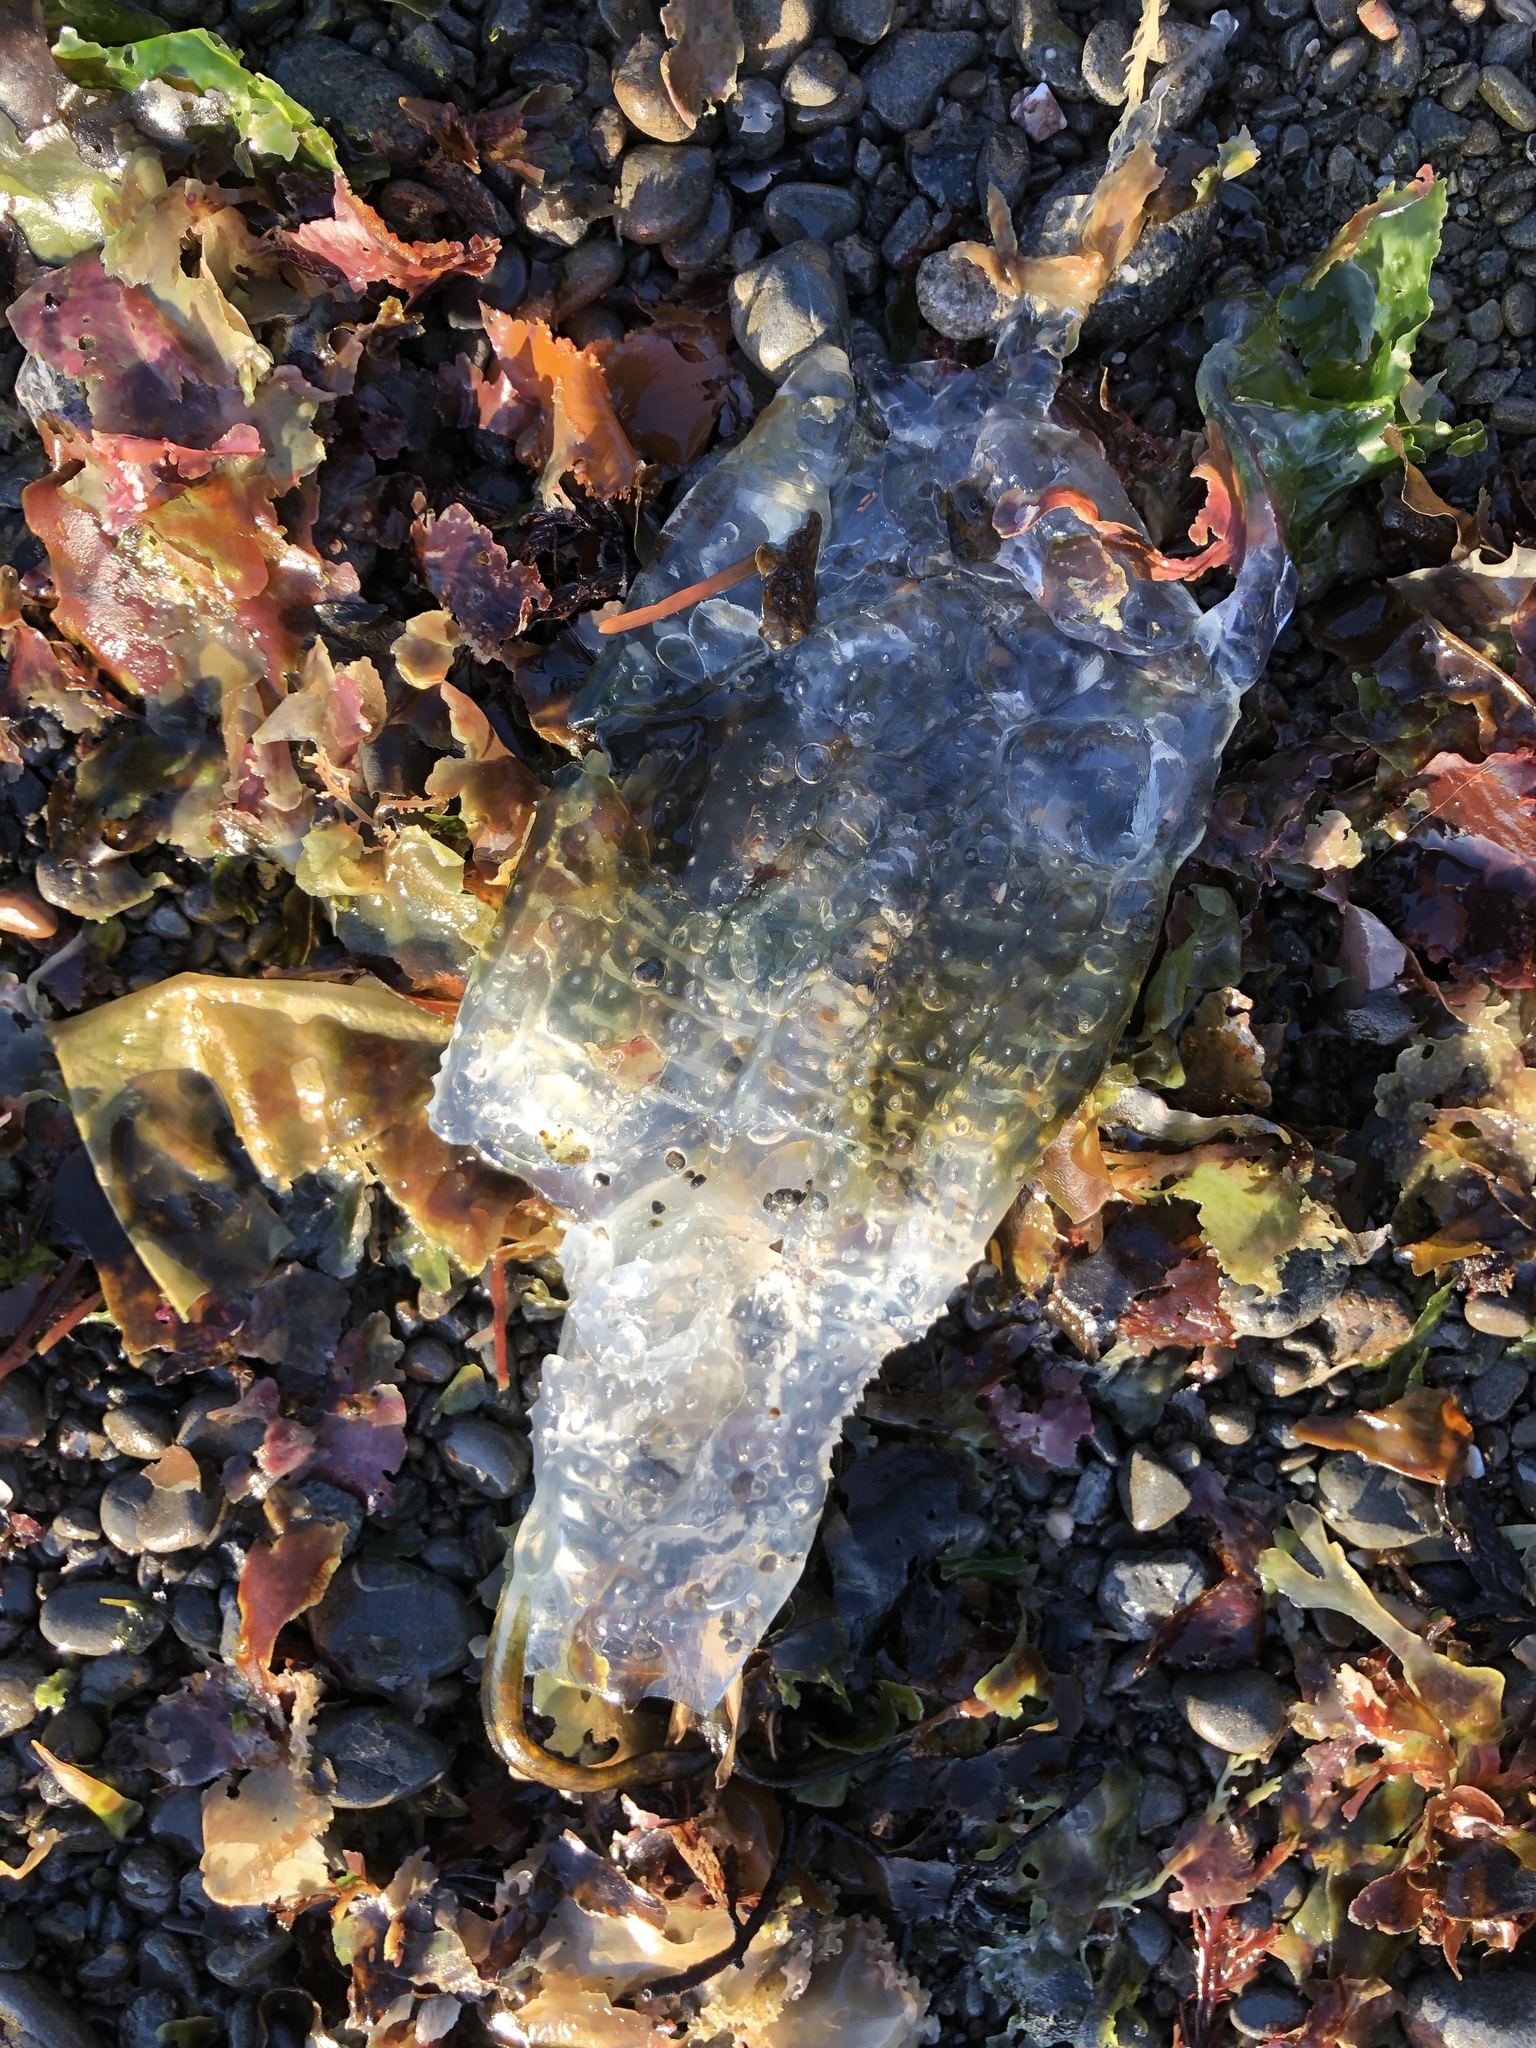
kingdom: Animalia
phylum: Chordata
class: Thaliacea
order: Salpida
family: Salpidae
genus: Thetys
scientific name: Thetys vagina
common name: Vagina salp
